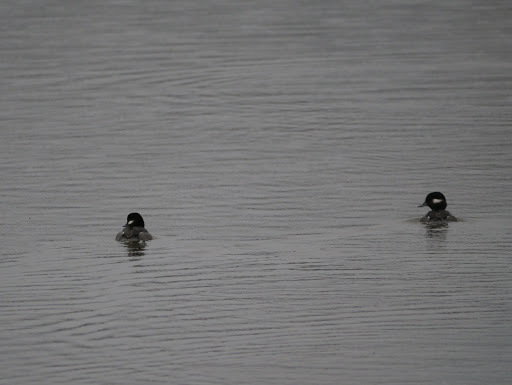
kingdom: Animalia
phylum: Chordata
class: Aves
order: Anseriformes
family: Anatidae
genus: Bucephala
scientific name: Bucephala albeola
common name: Bufflehead
